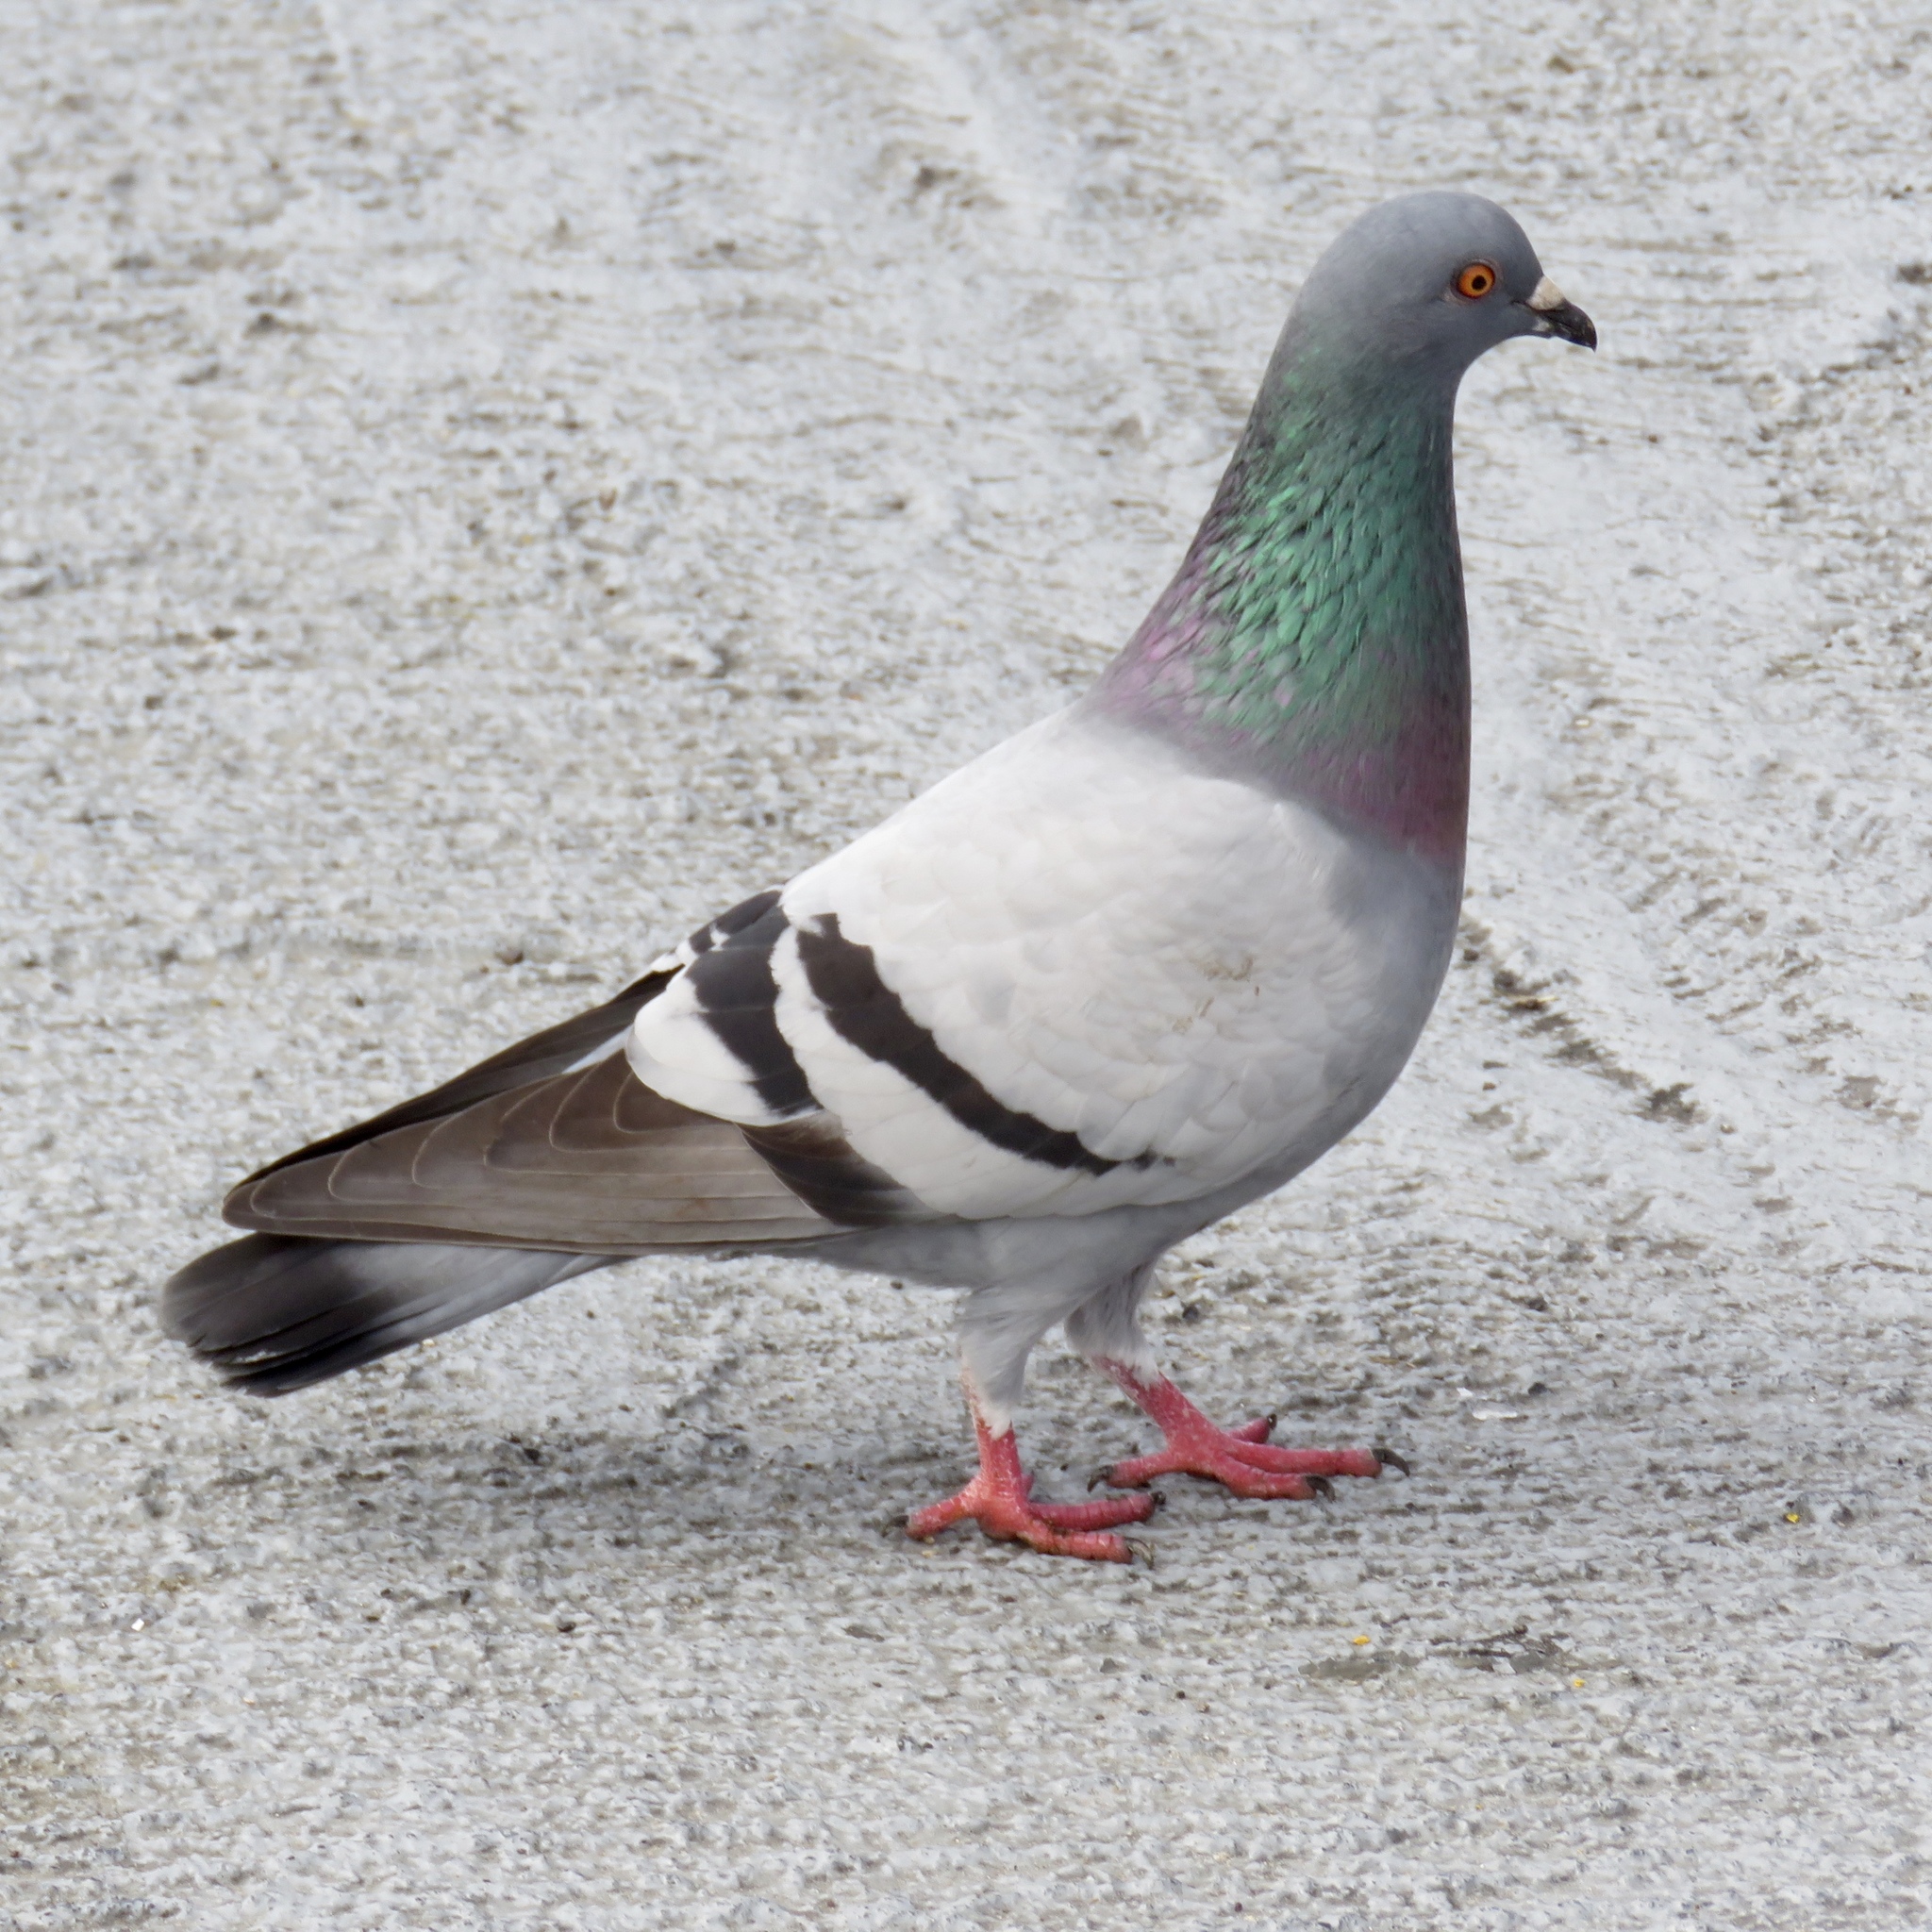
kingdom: Animalia
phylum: Chordata
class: Aves
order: Columbiformes
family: Columbidae
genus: Columba
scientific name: Columba livia
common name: Rock pigeon
